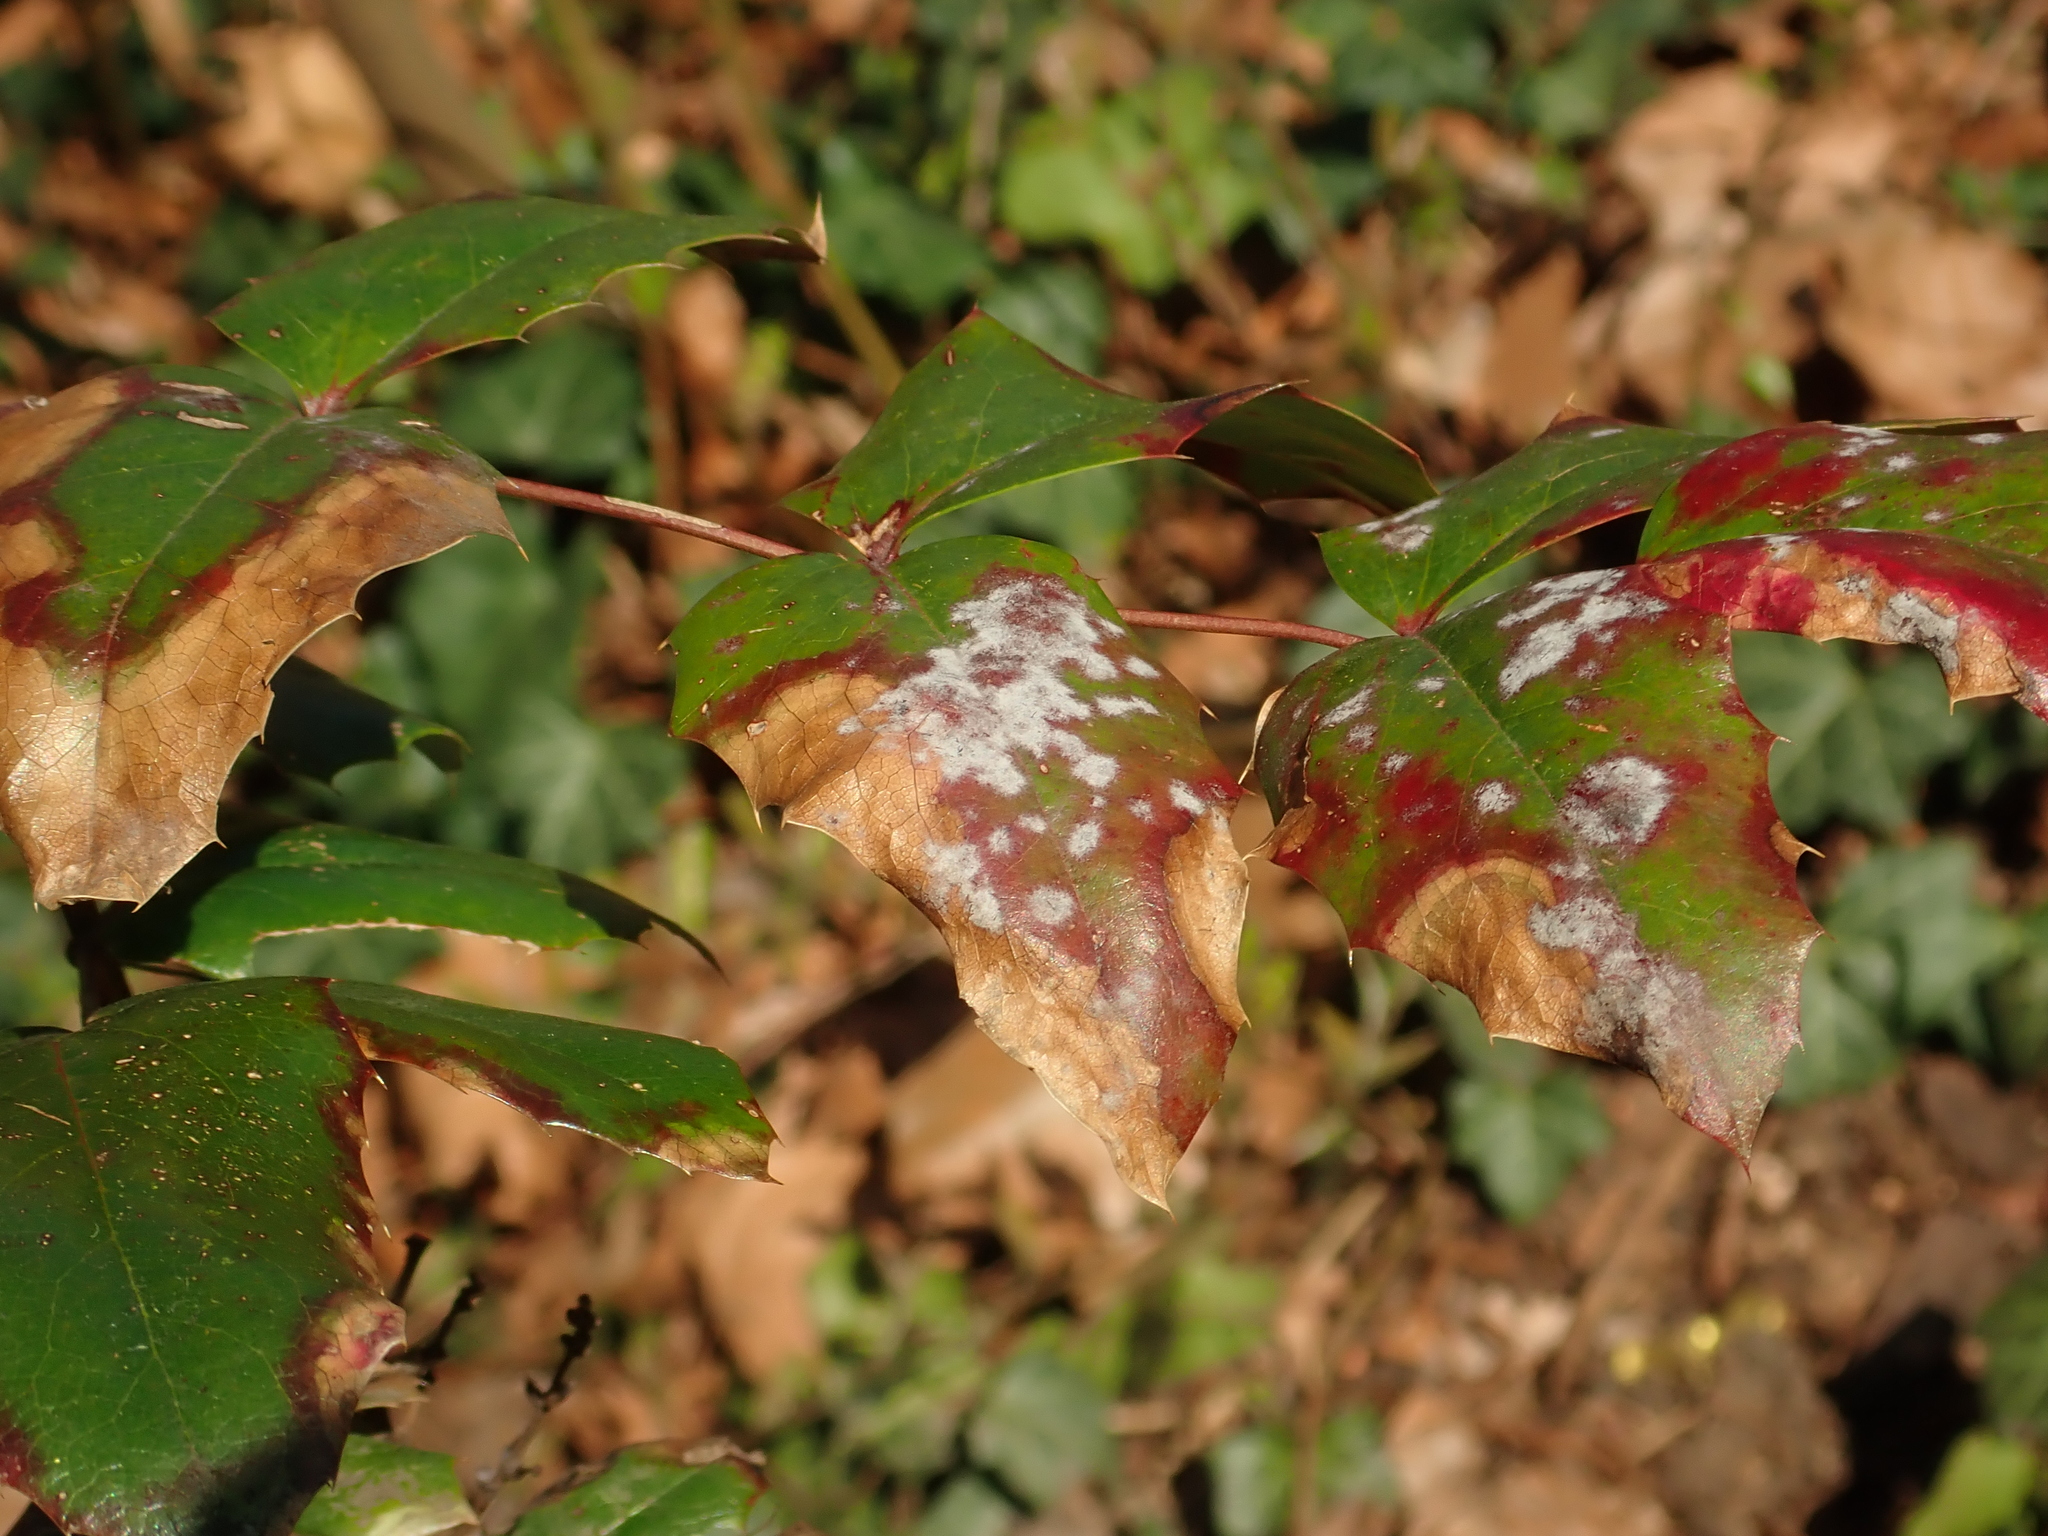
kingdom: Fungi
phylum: Ascomycota
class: Leotiomycetes
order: Helotiales
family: Erysiphaceae
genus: Erysiphe
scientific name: Erysiphe berberidis
